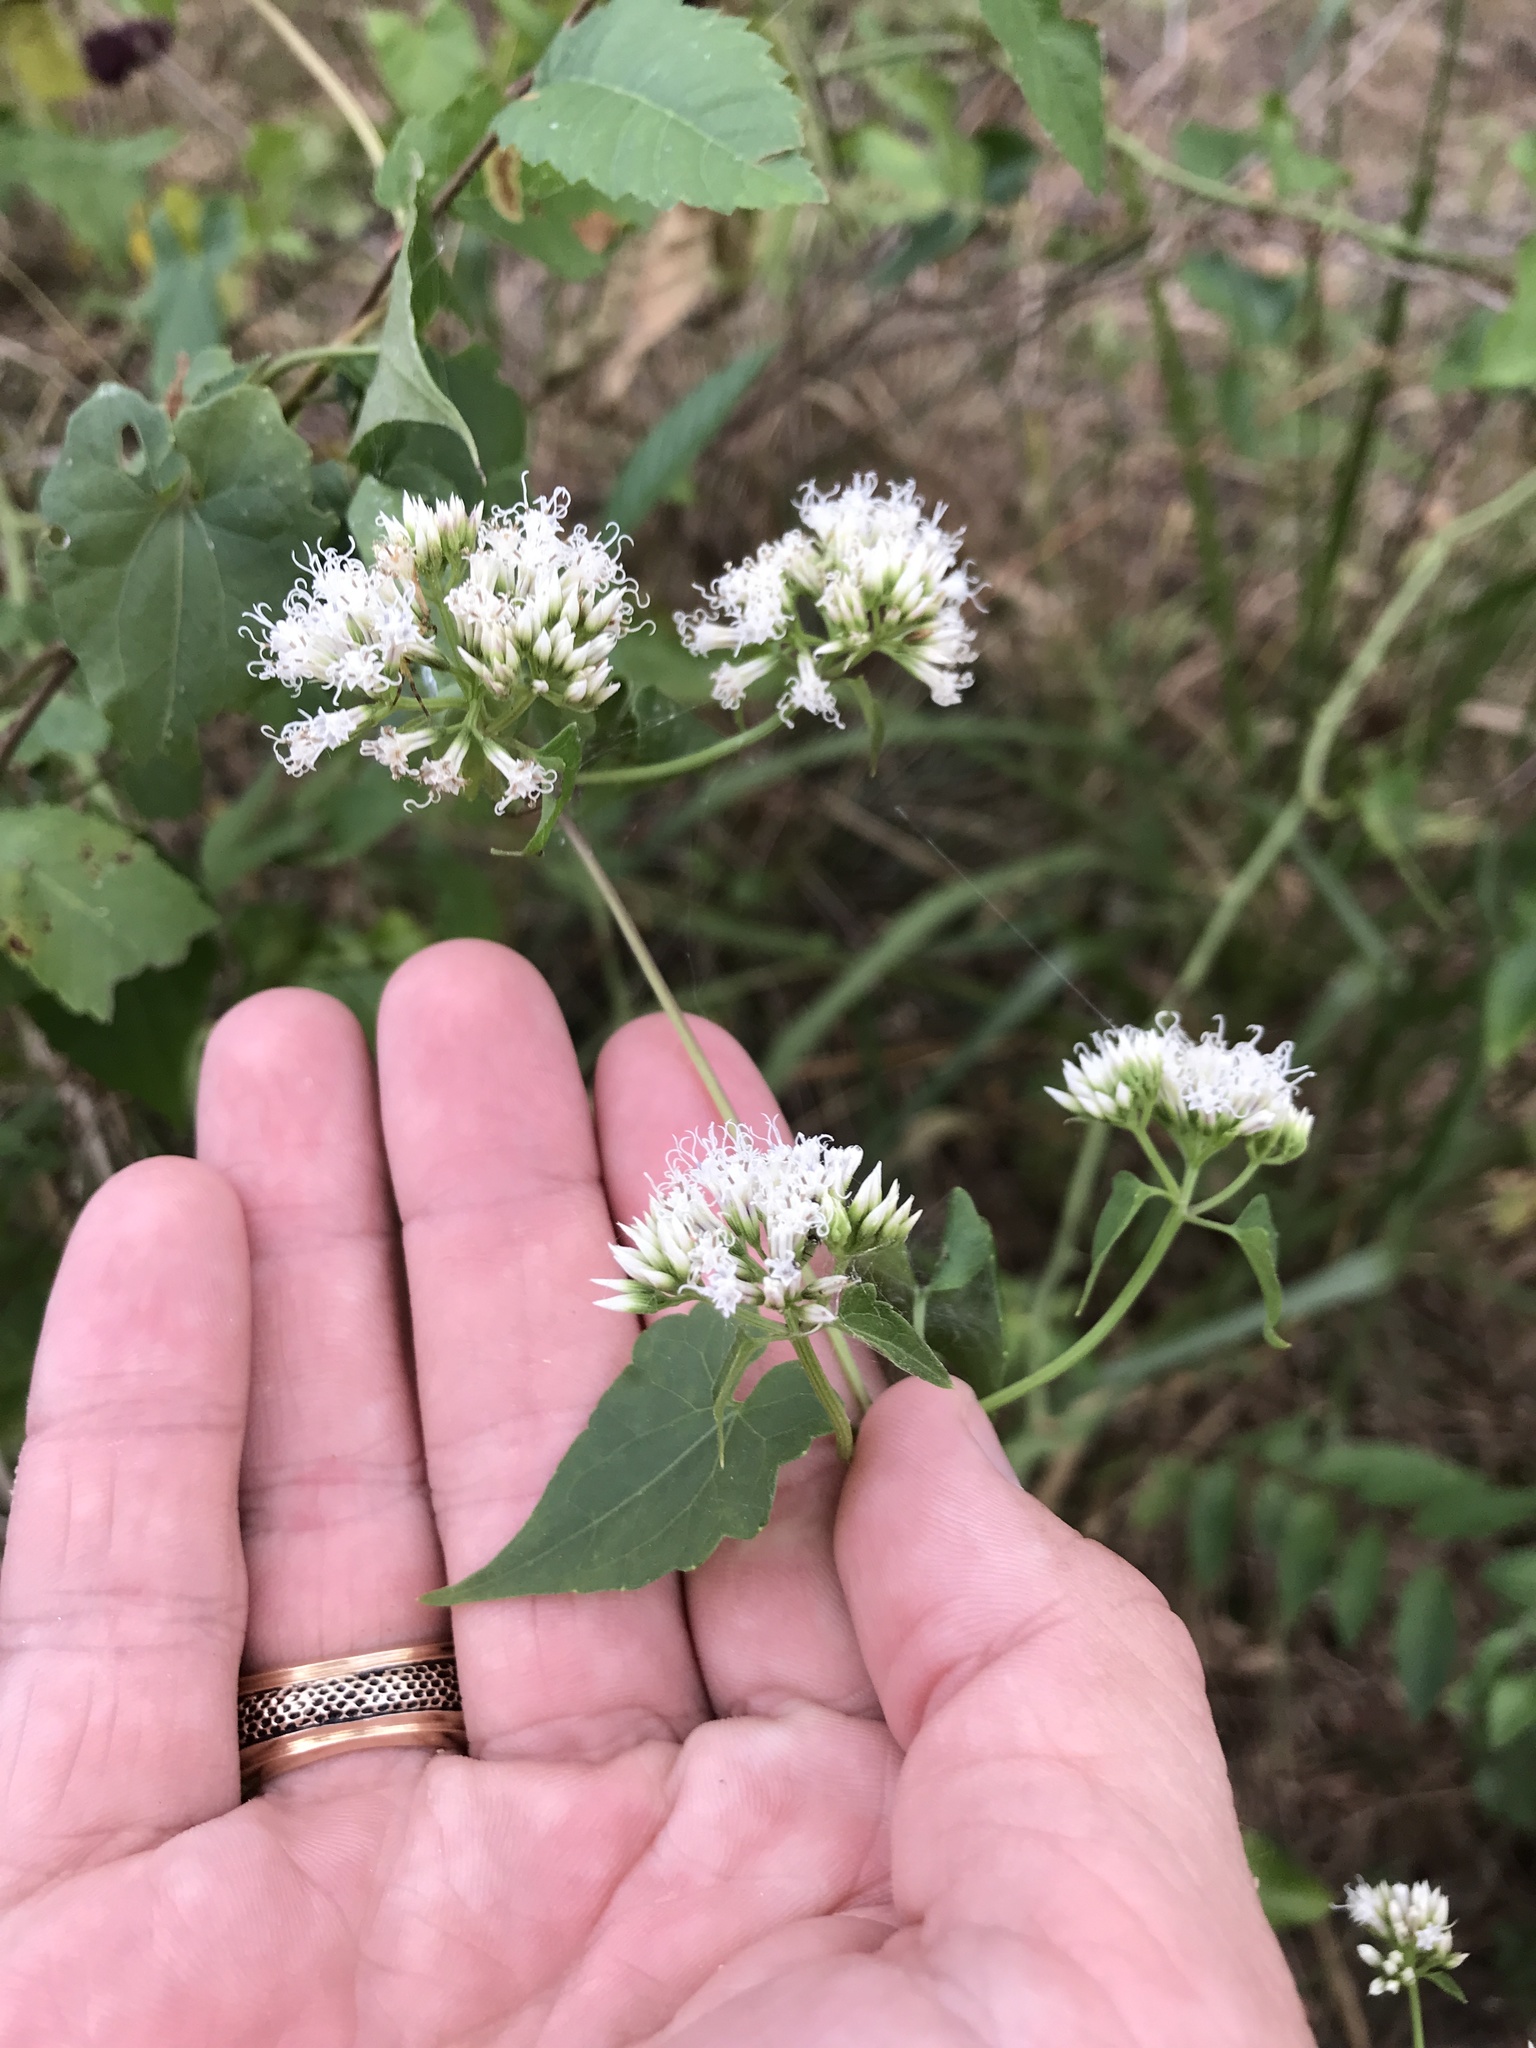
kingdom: Plantae
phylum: Tracheophyta
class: Magnoliopsida
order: Asterales
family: Asteraceae
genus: Mikania
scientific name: Mikania scandens
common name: Climbing hempvine
